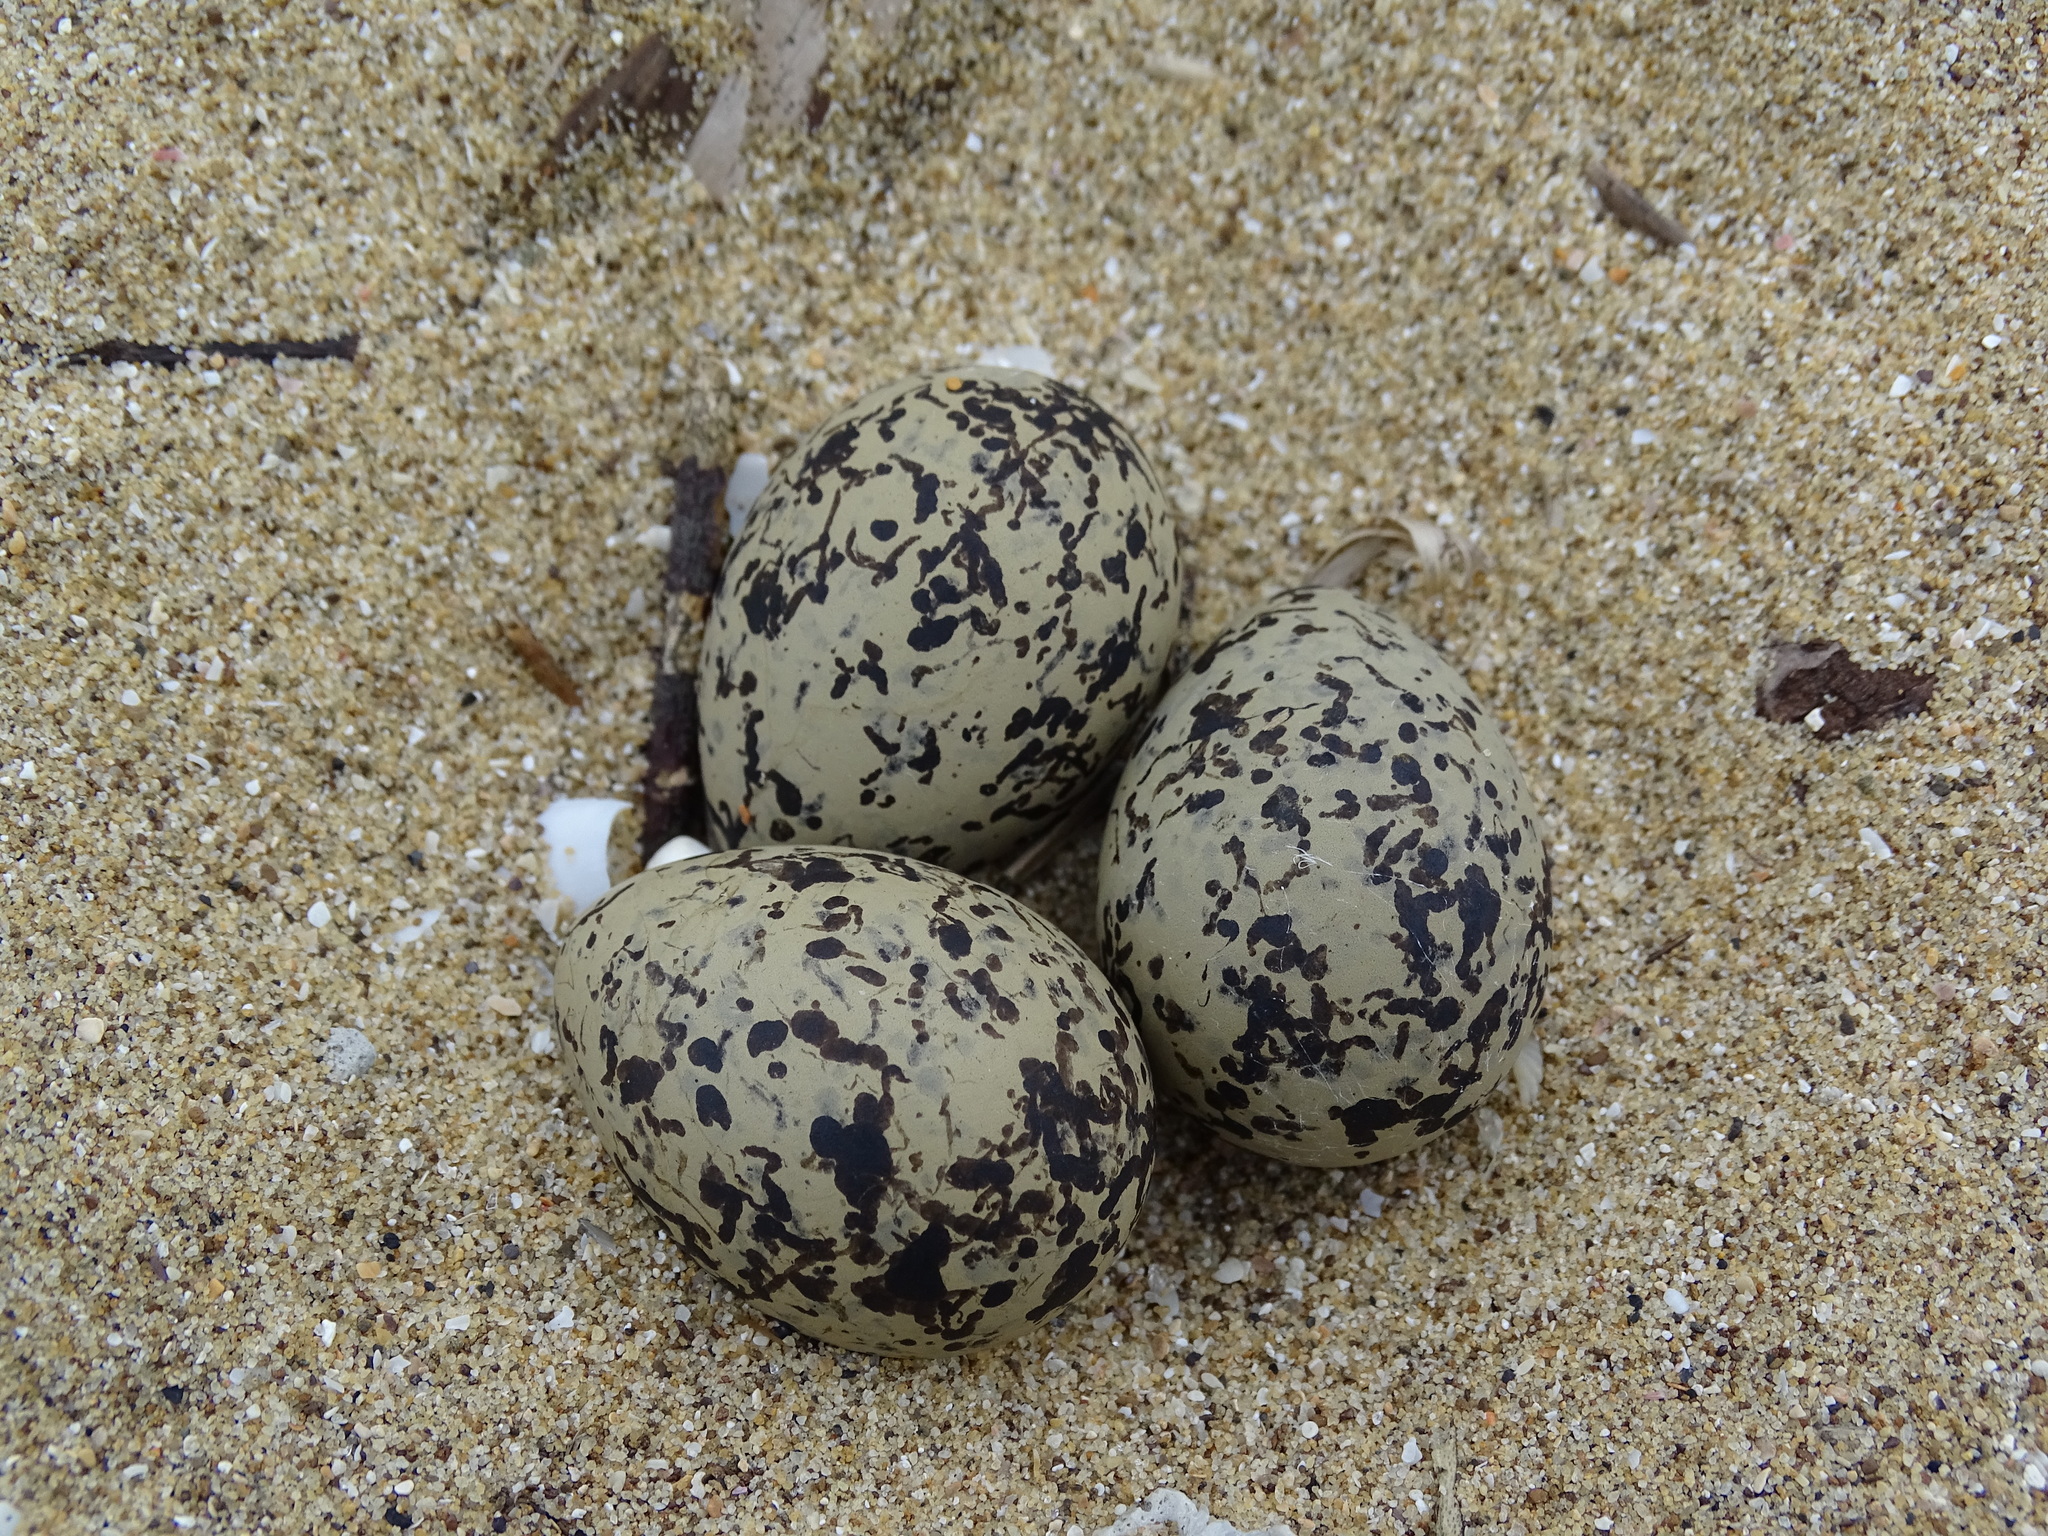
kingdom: Animalia
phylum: Chordata
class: Aves
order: Charadriiformes
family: Charadriidae
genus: Charadrius
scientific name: Charadrius alexandrinus
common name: Kentish plover
